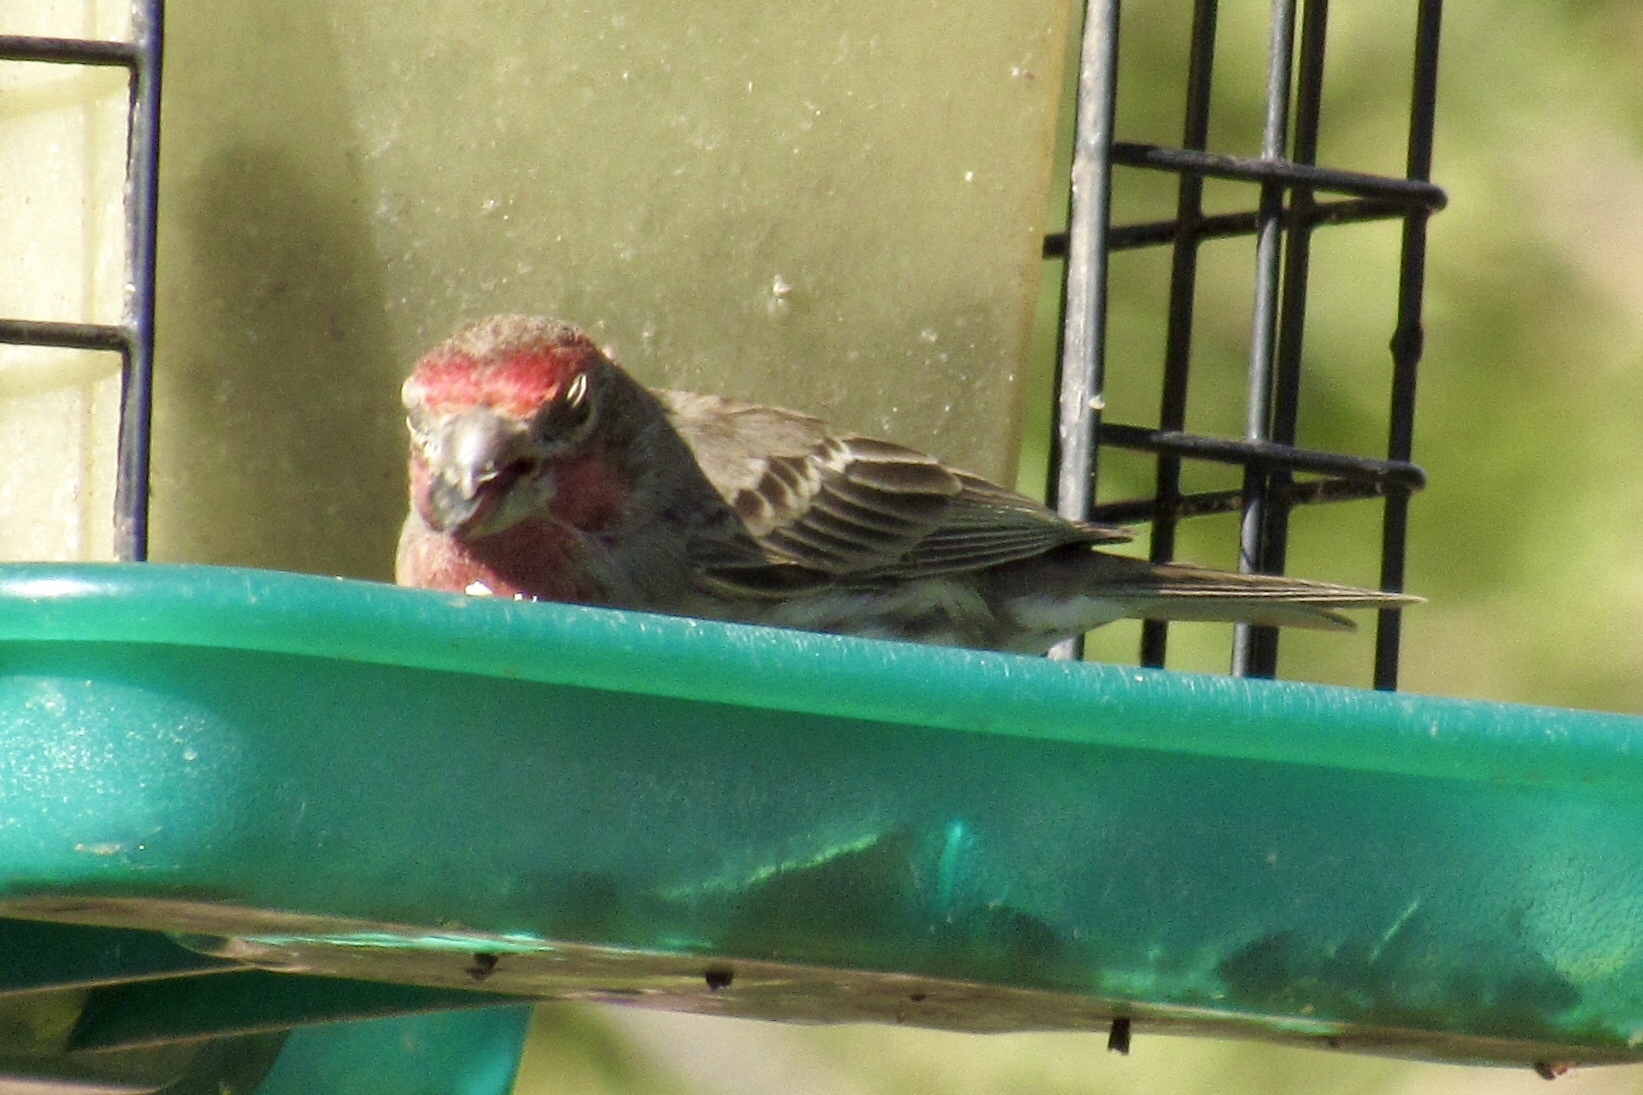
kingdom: Animalia
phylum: Chordata
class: Aves
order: Passeriformes
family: Fringillidae
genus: Haemorhous
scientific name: Haemorhous mexicanus
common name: House finch
